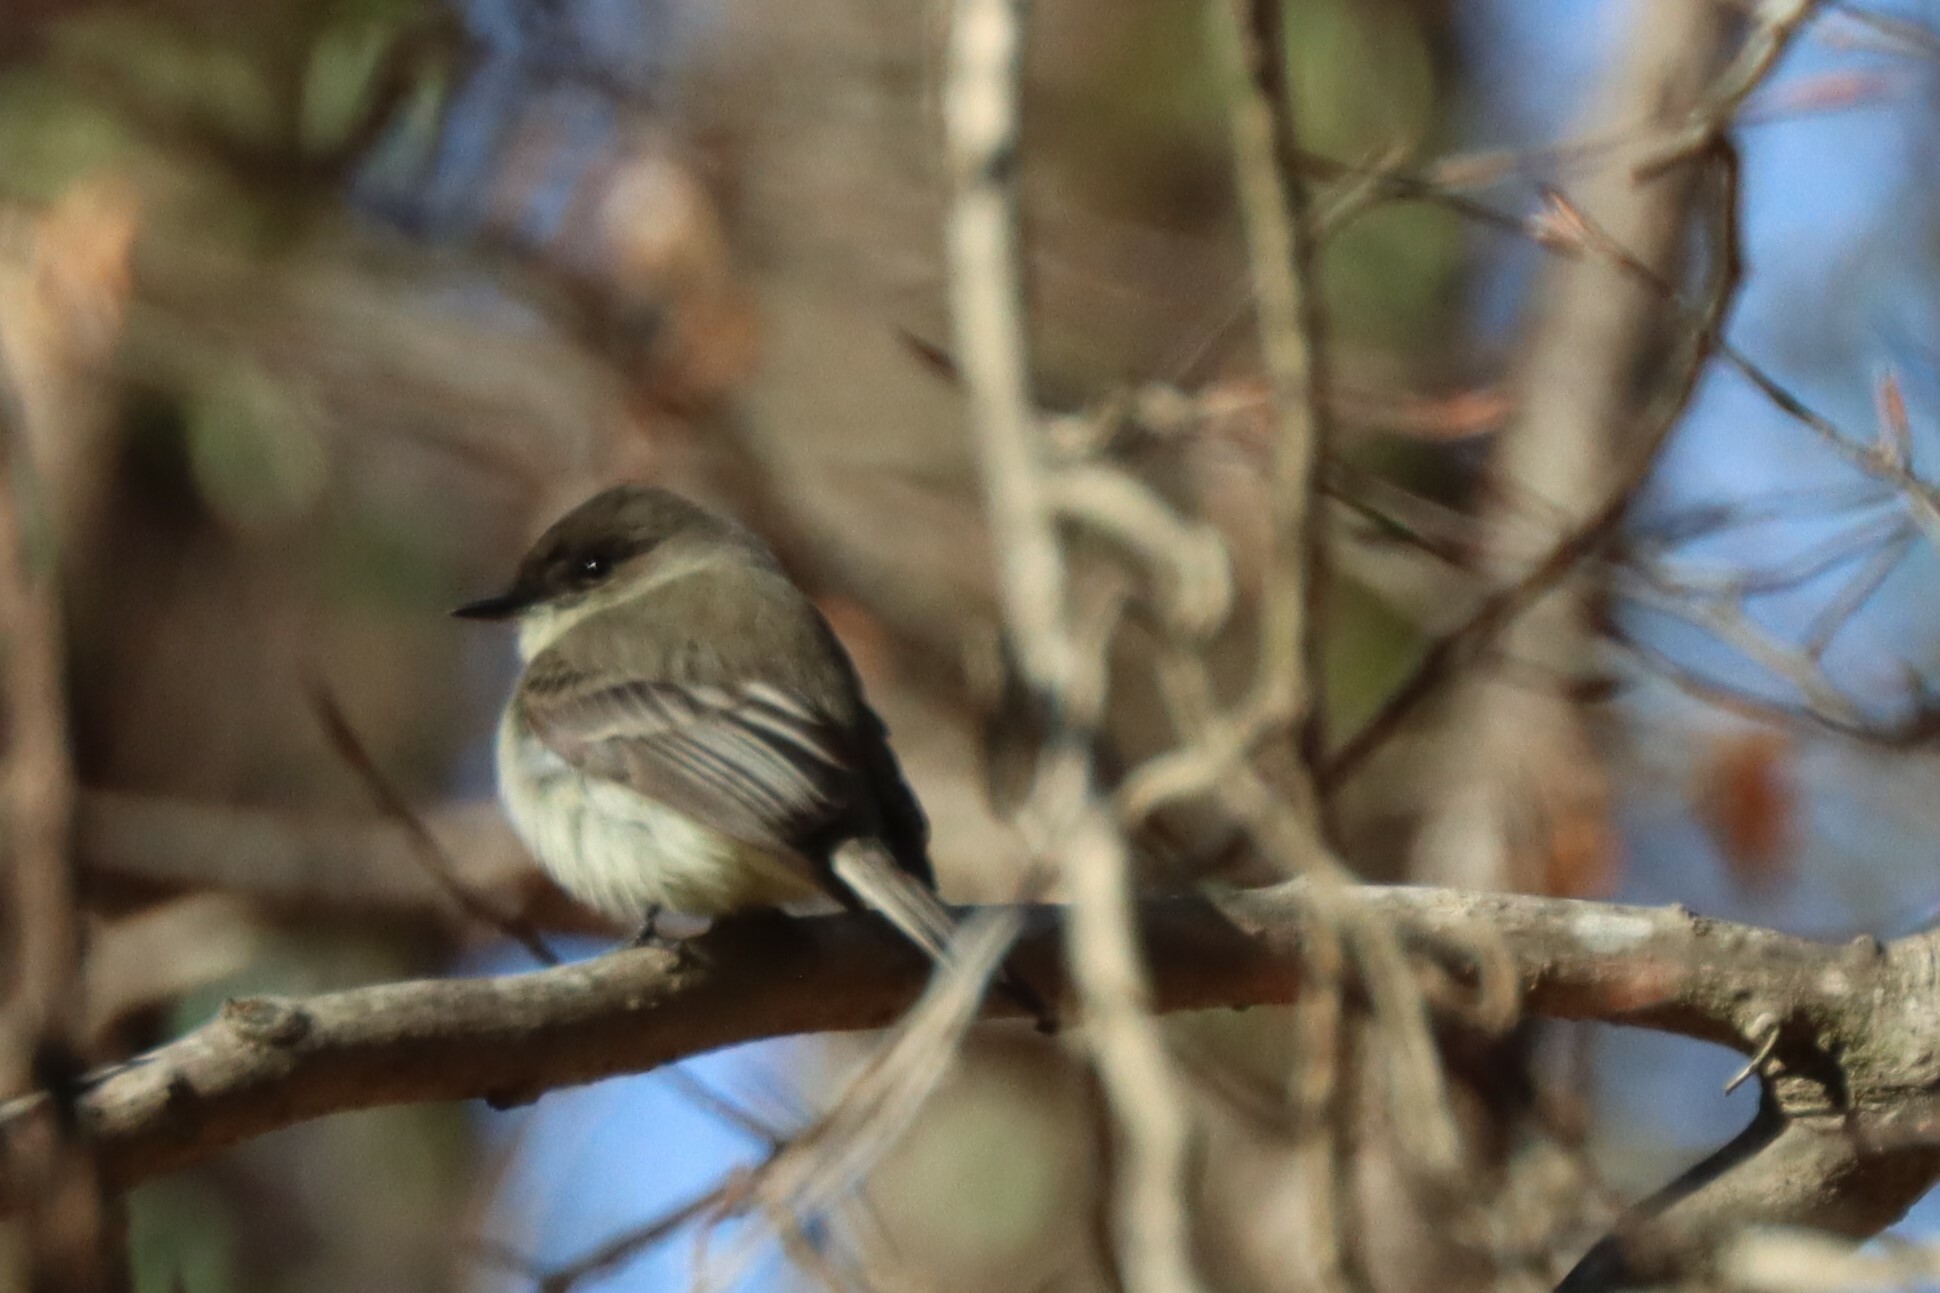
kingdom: Animalia
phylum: Chordata
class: Aves
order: Passeriformes
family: Tyrannidae
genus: Sayornis
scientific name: Sayornis phoebe
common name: Eastern phoebe
